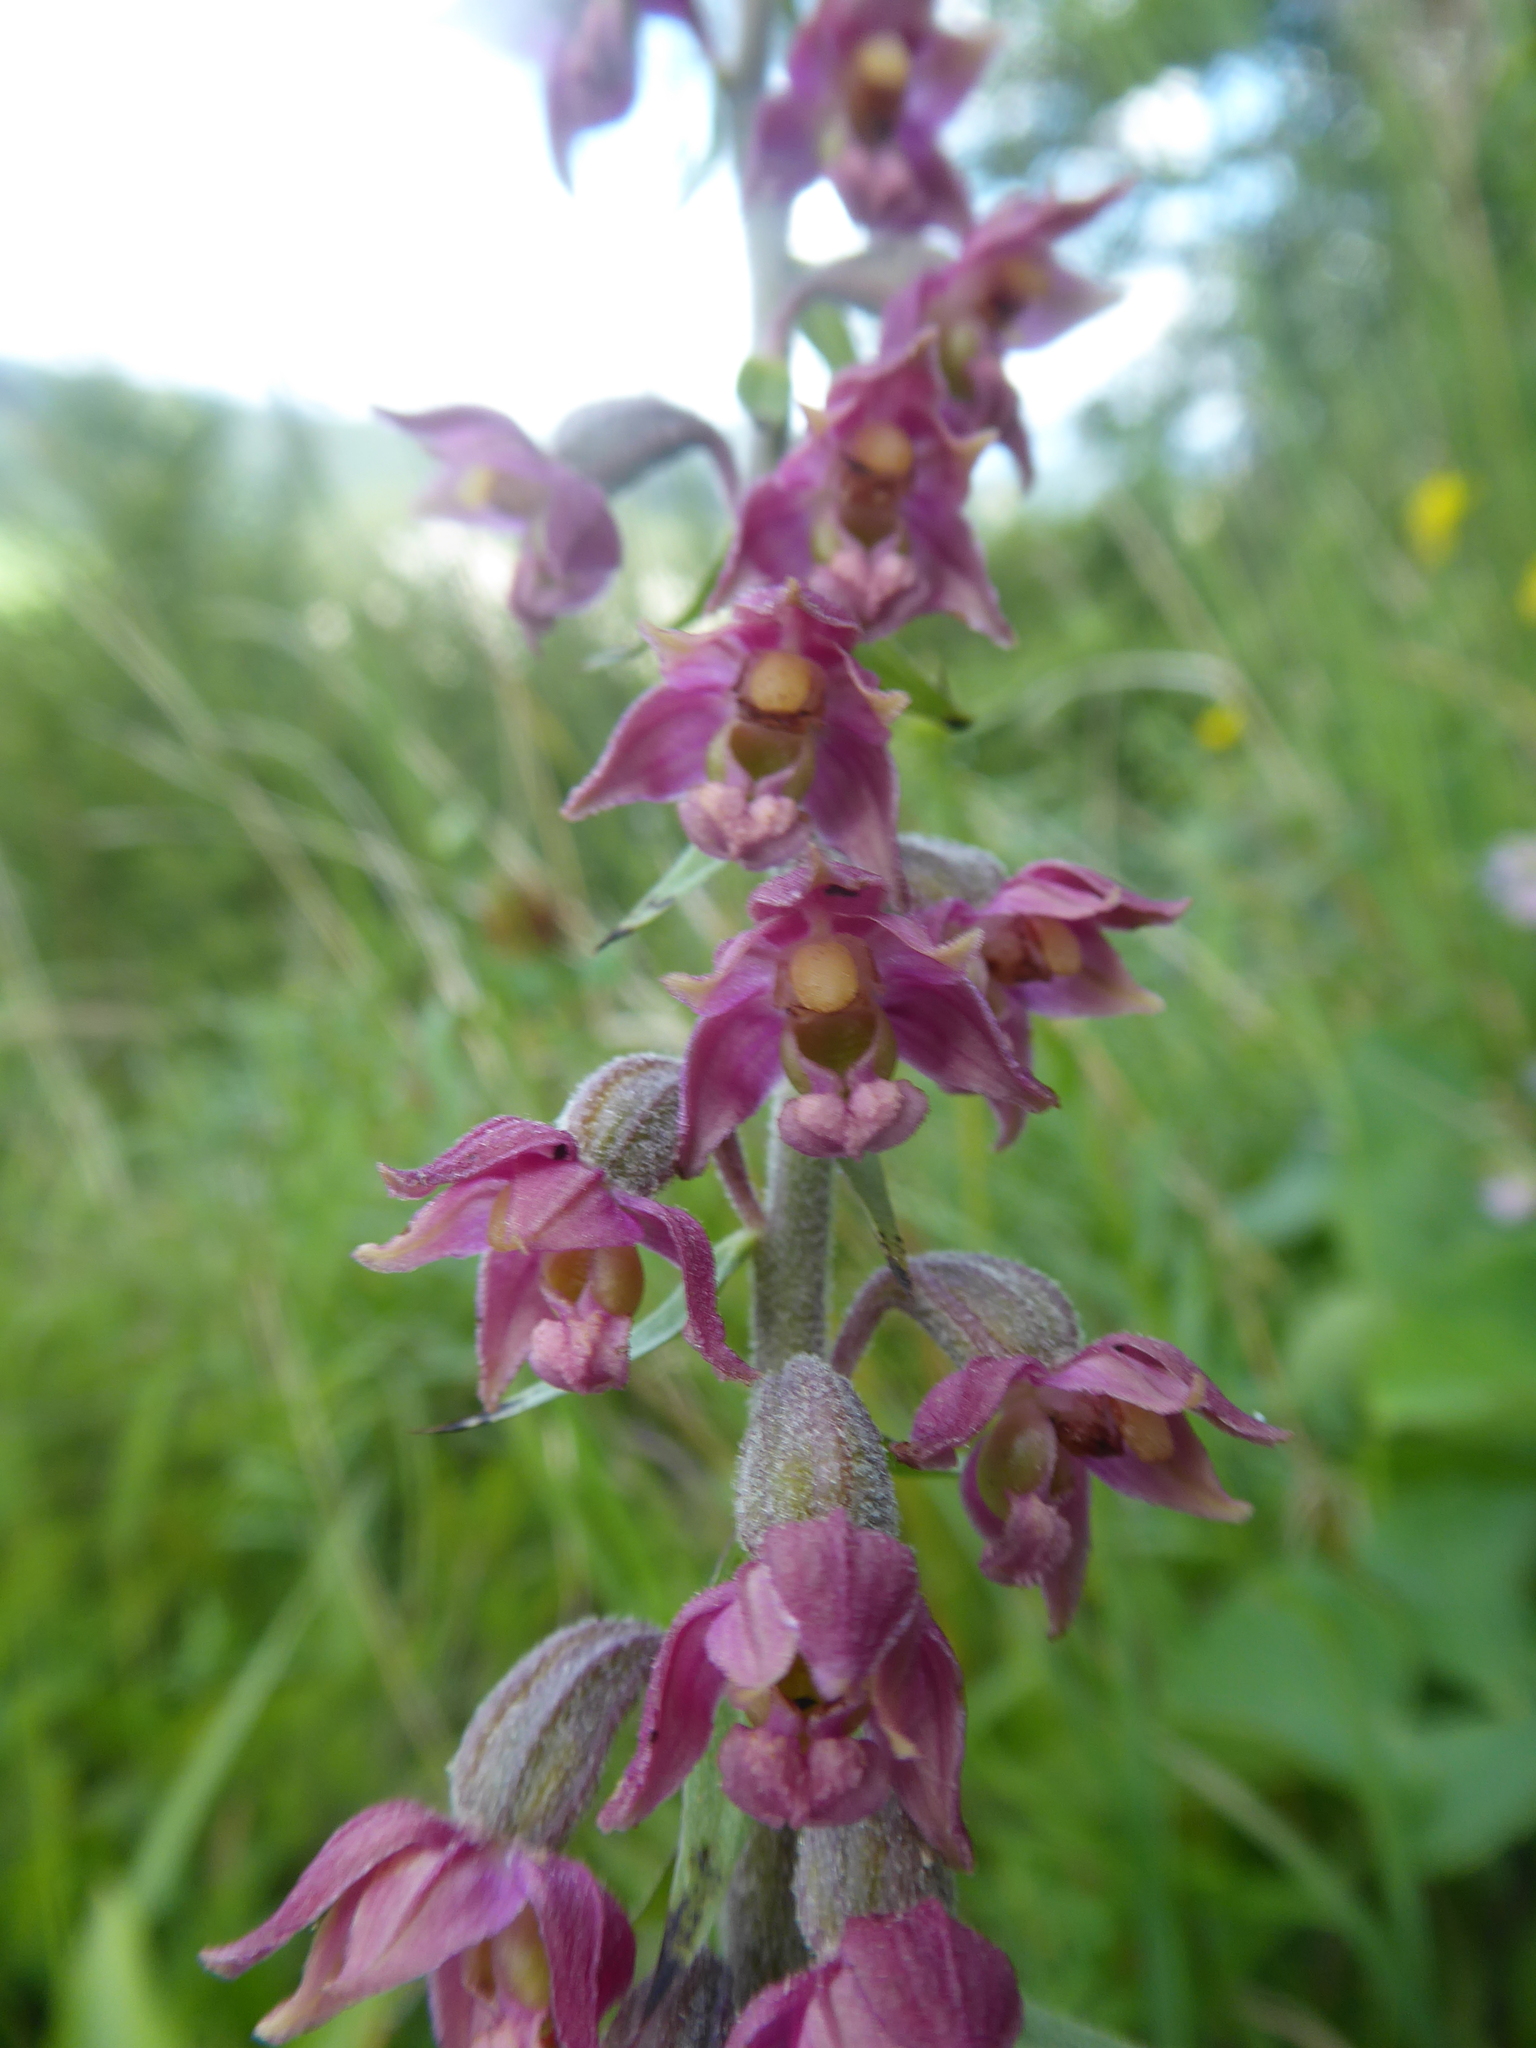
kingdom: Plantae
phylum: Tracheophyta
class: Liliopsida
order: Asparagales
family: Orchidaceae
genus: Epipactis
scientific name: Epipactis atrorubens
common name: Dark-red helleborine
